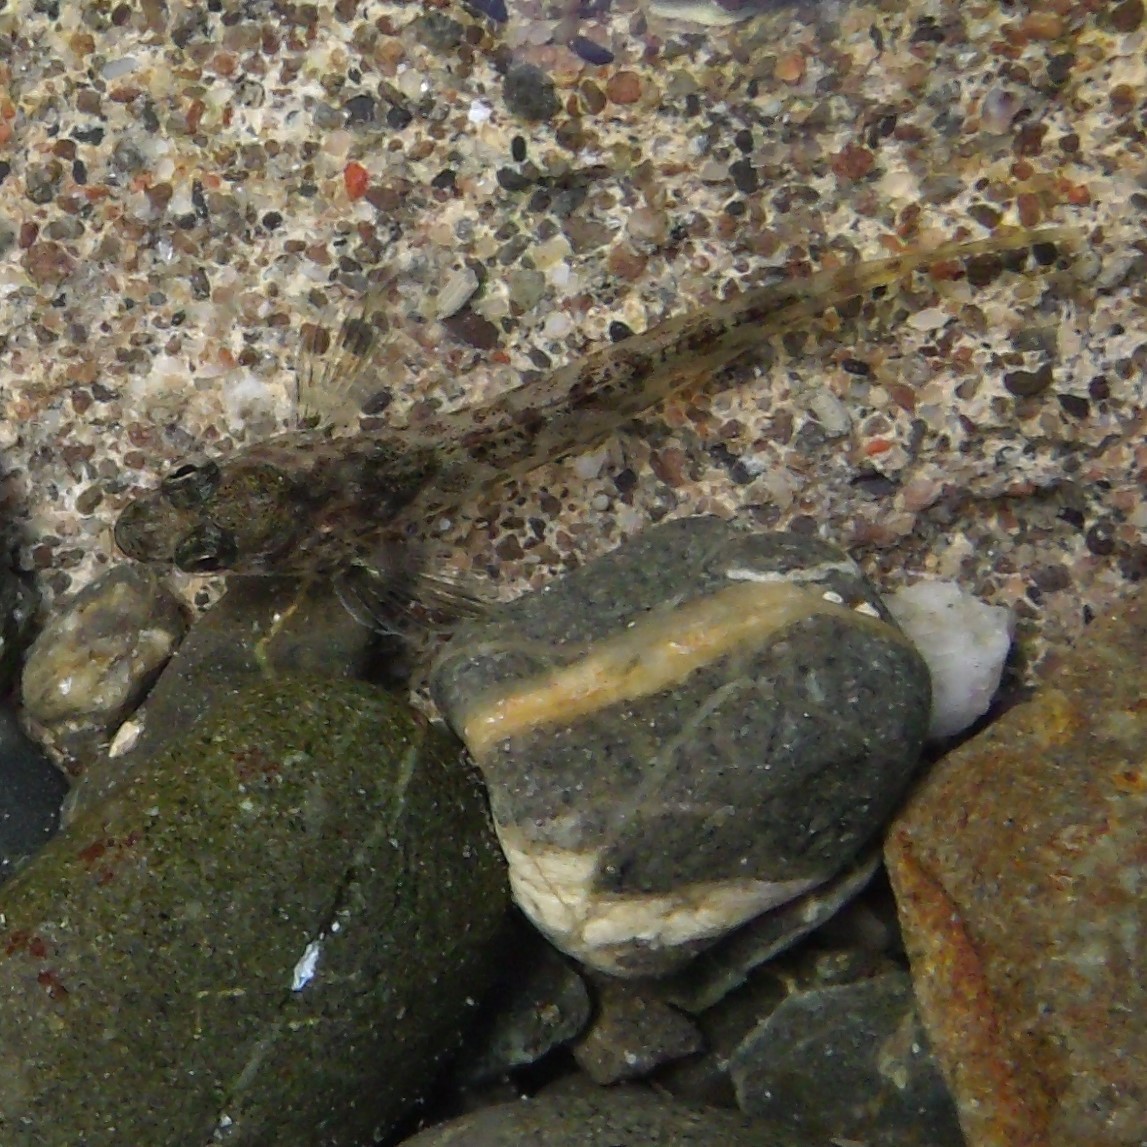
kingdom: Animalia
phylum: Chordata
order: Perciformes
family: Tripterygiidae
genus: Bellapiscis
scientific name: Bellapiscis medius
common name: Twister
